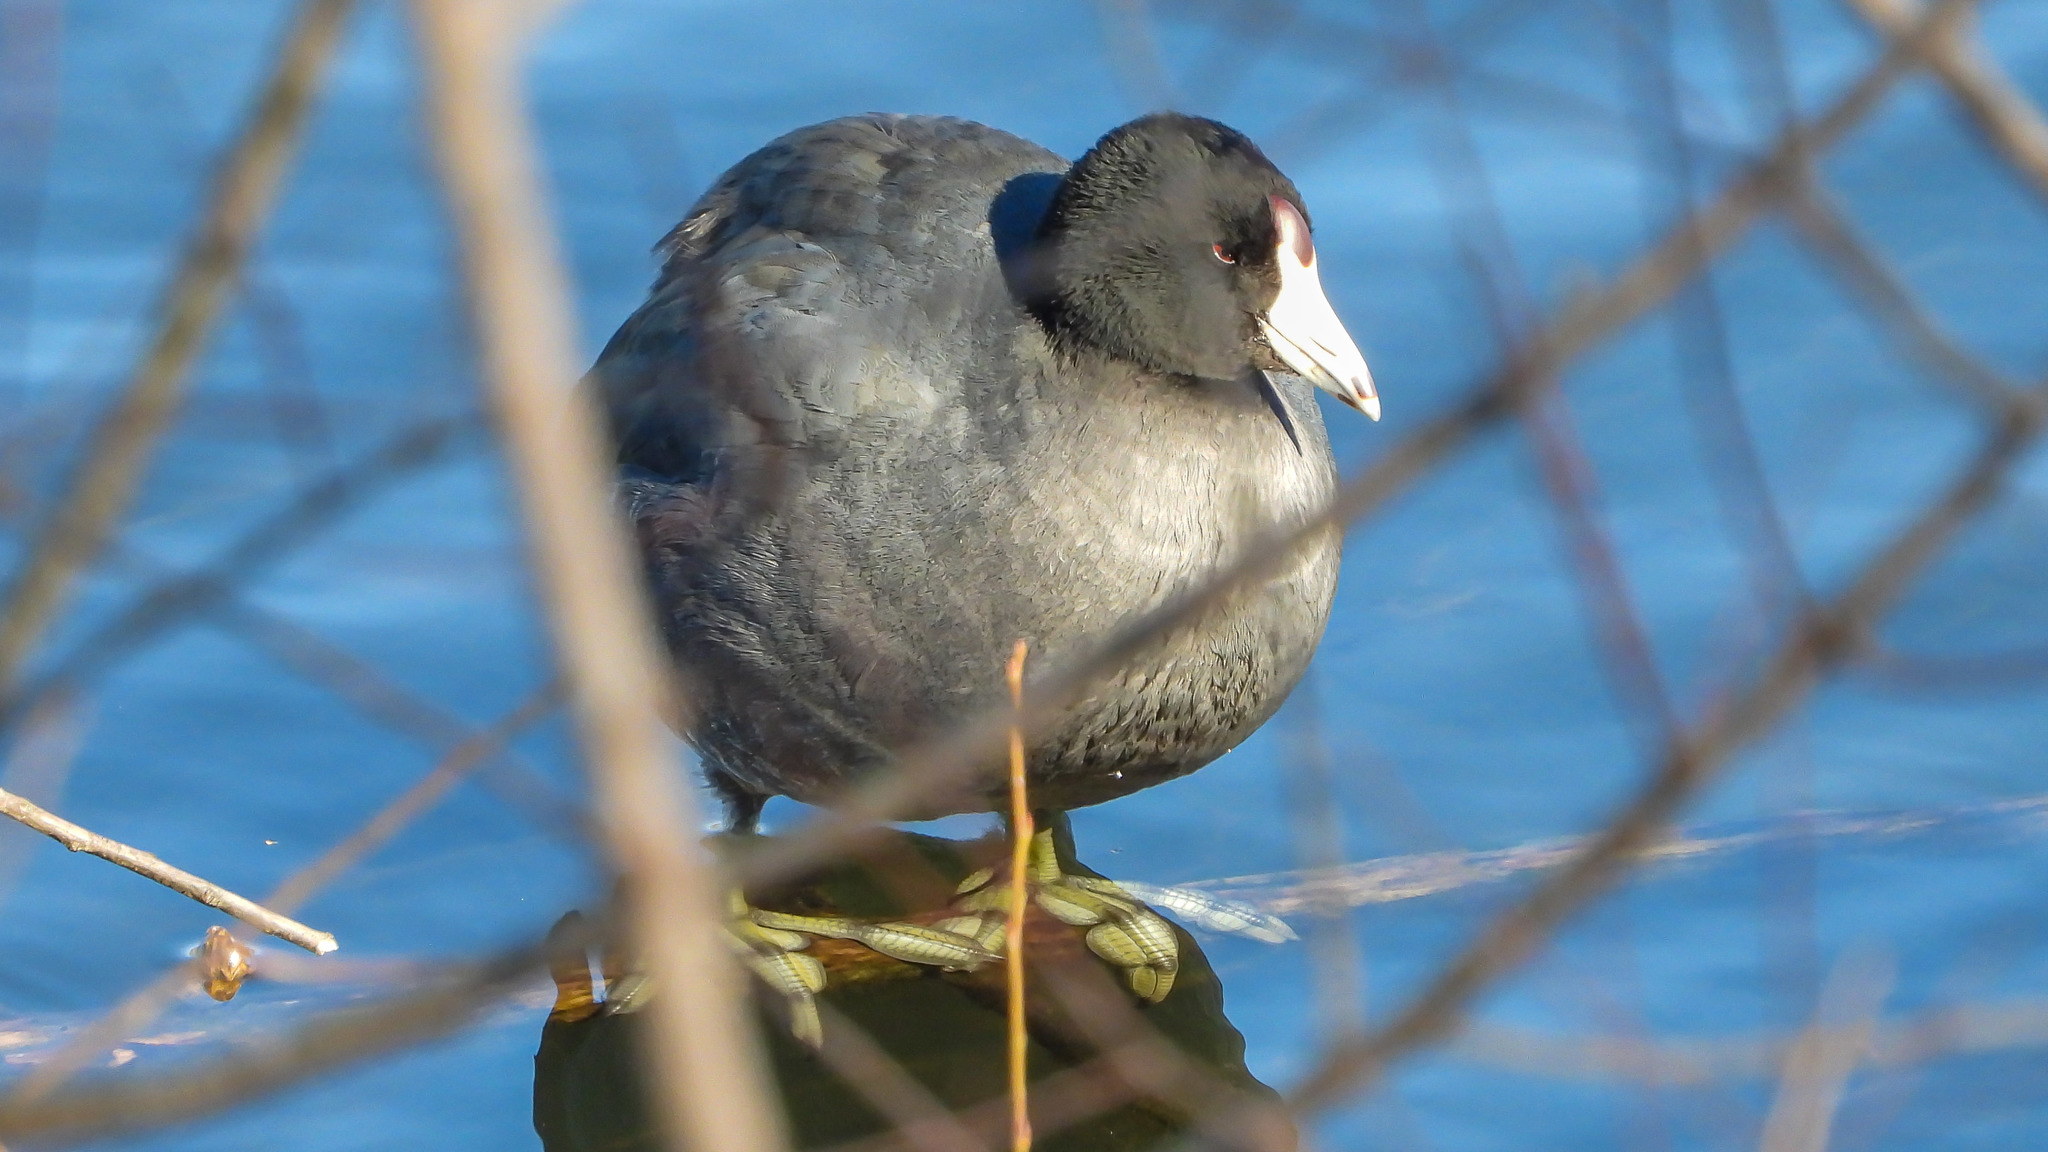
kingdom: Animalia
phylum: Chordata
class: Aves
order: Gruiformes
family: Rallidae
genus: Fulica
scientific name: Fulica americana
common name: American coot
